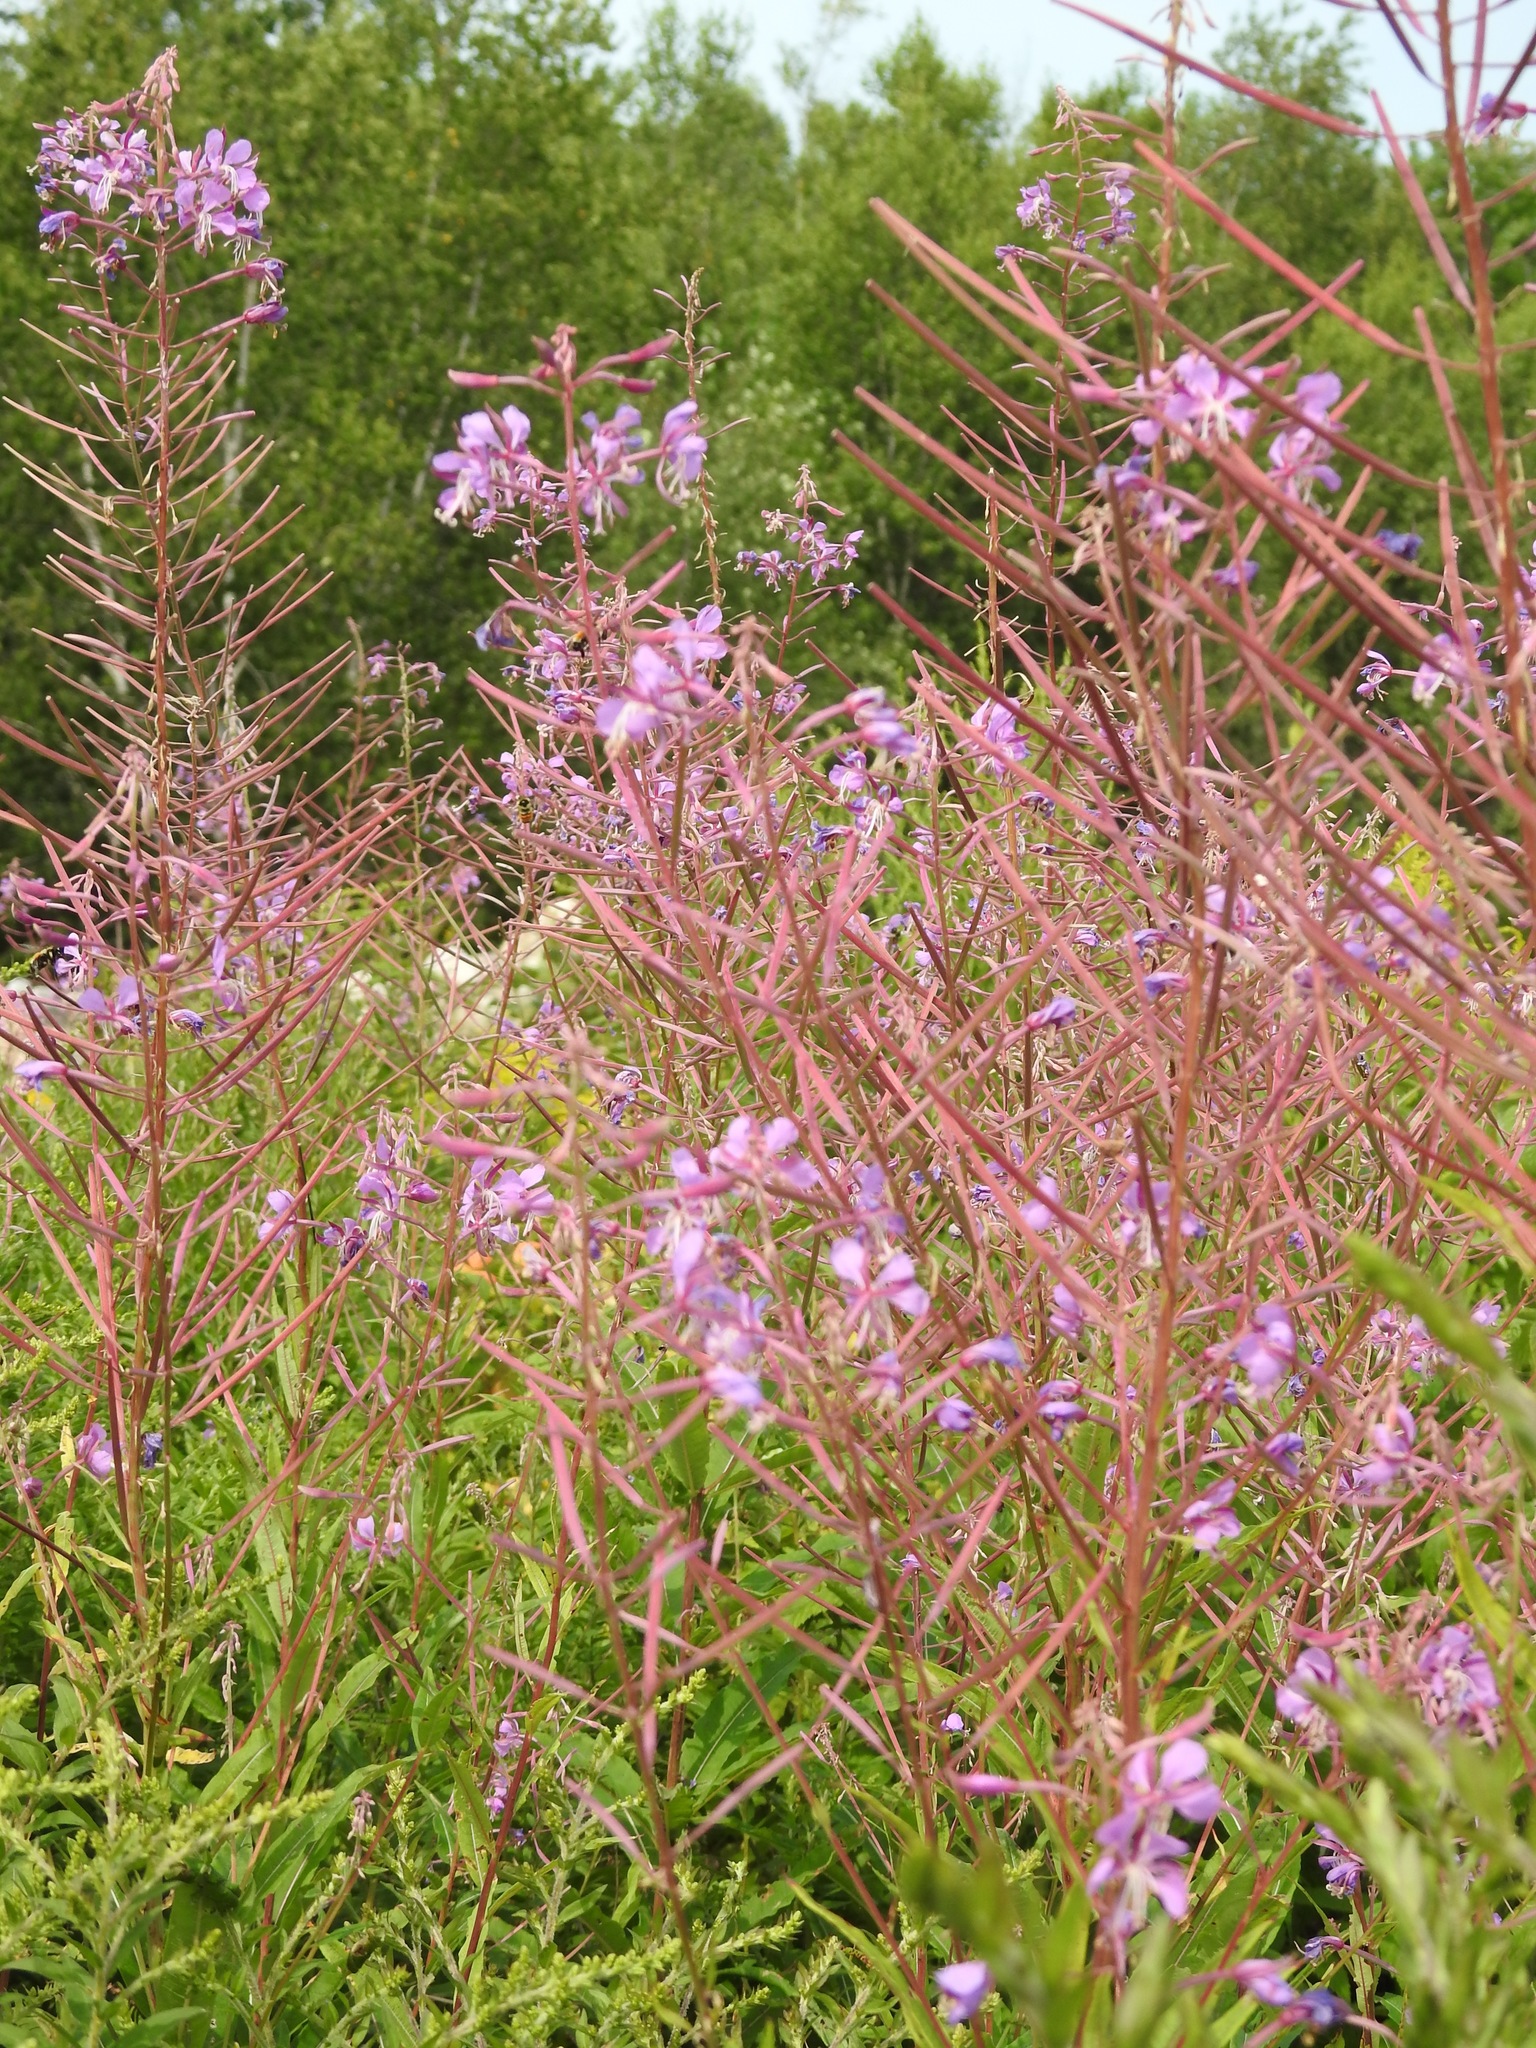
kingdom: Plantae
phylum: Tracheophyta
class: Magnoliopsida
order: Myrtales
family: Onagraceae
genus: Chamaenerion
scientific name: Chamaenerion angustifolium
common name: Fireweed
